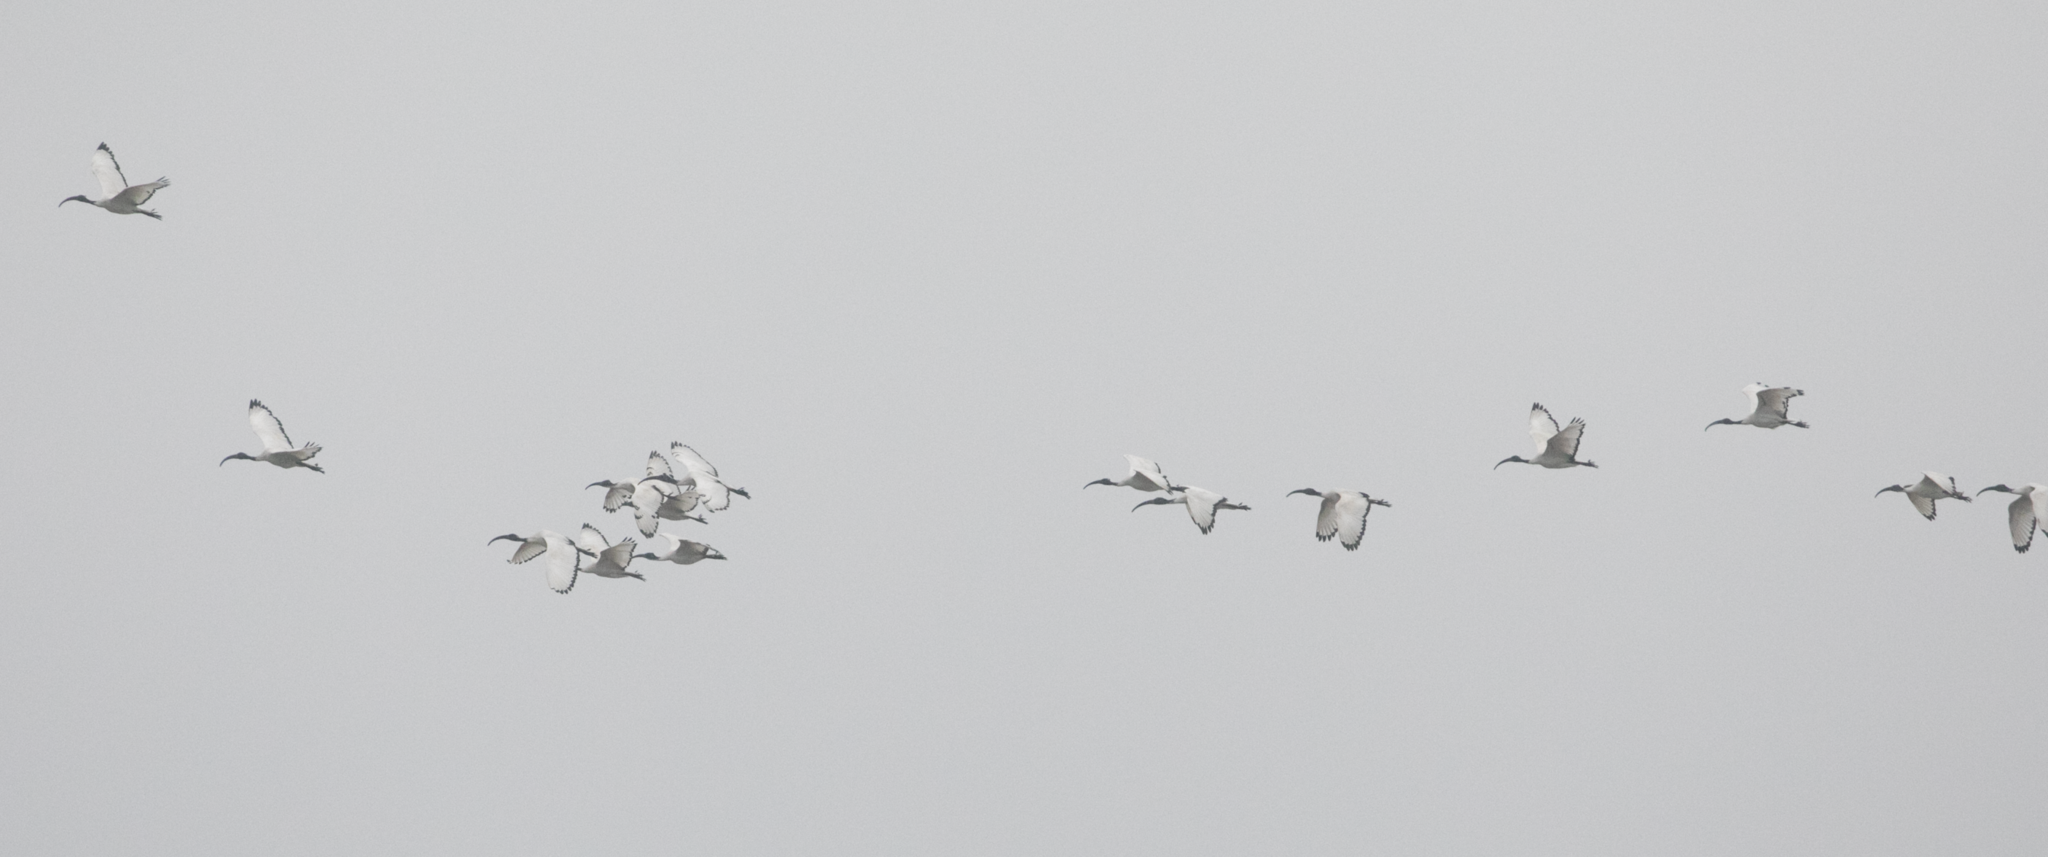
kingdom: Animalia
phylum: Chordata
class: Aves
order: Pelecaniformes
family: Threskiornithidae
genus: Threskiornis
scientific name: Threskiornis aethiopicus
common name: Sacred ibis
